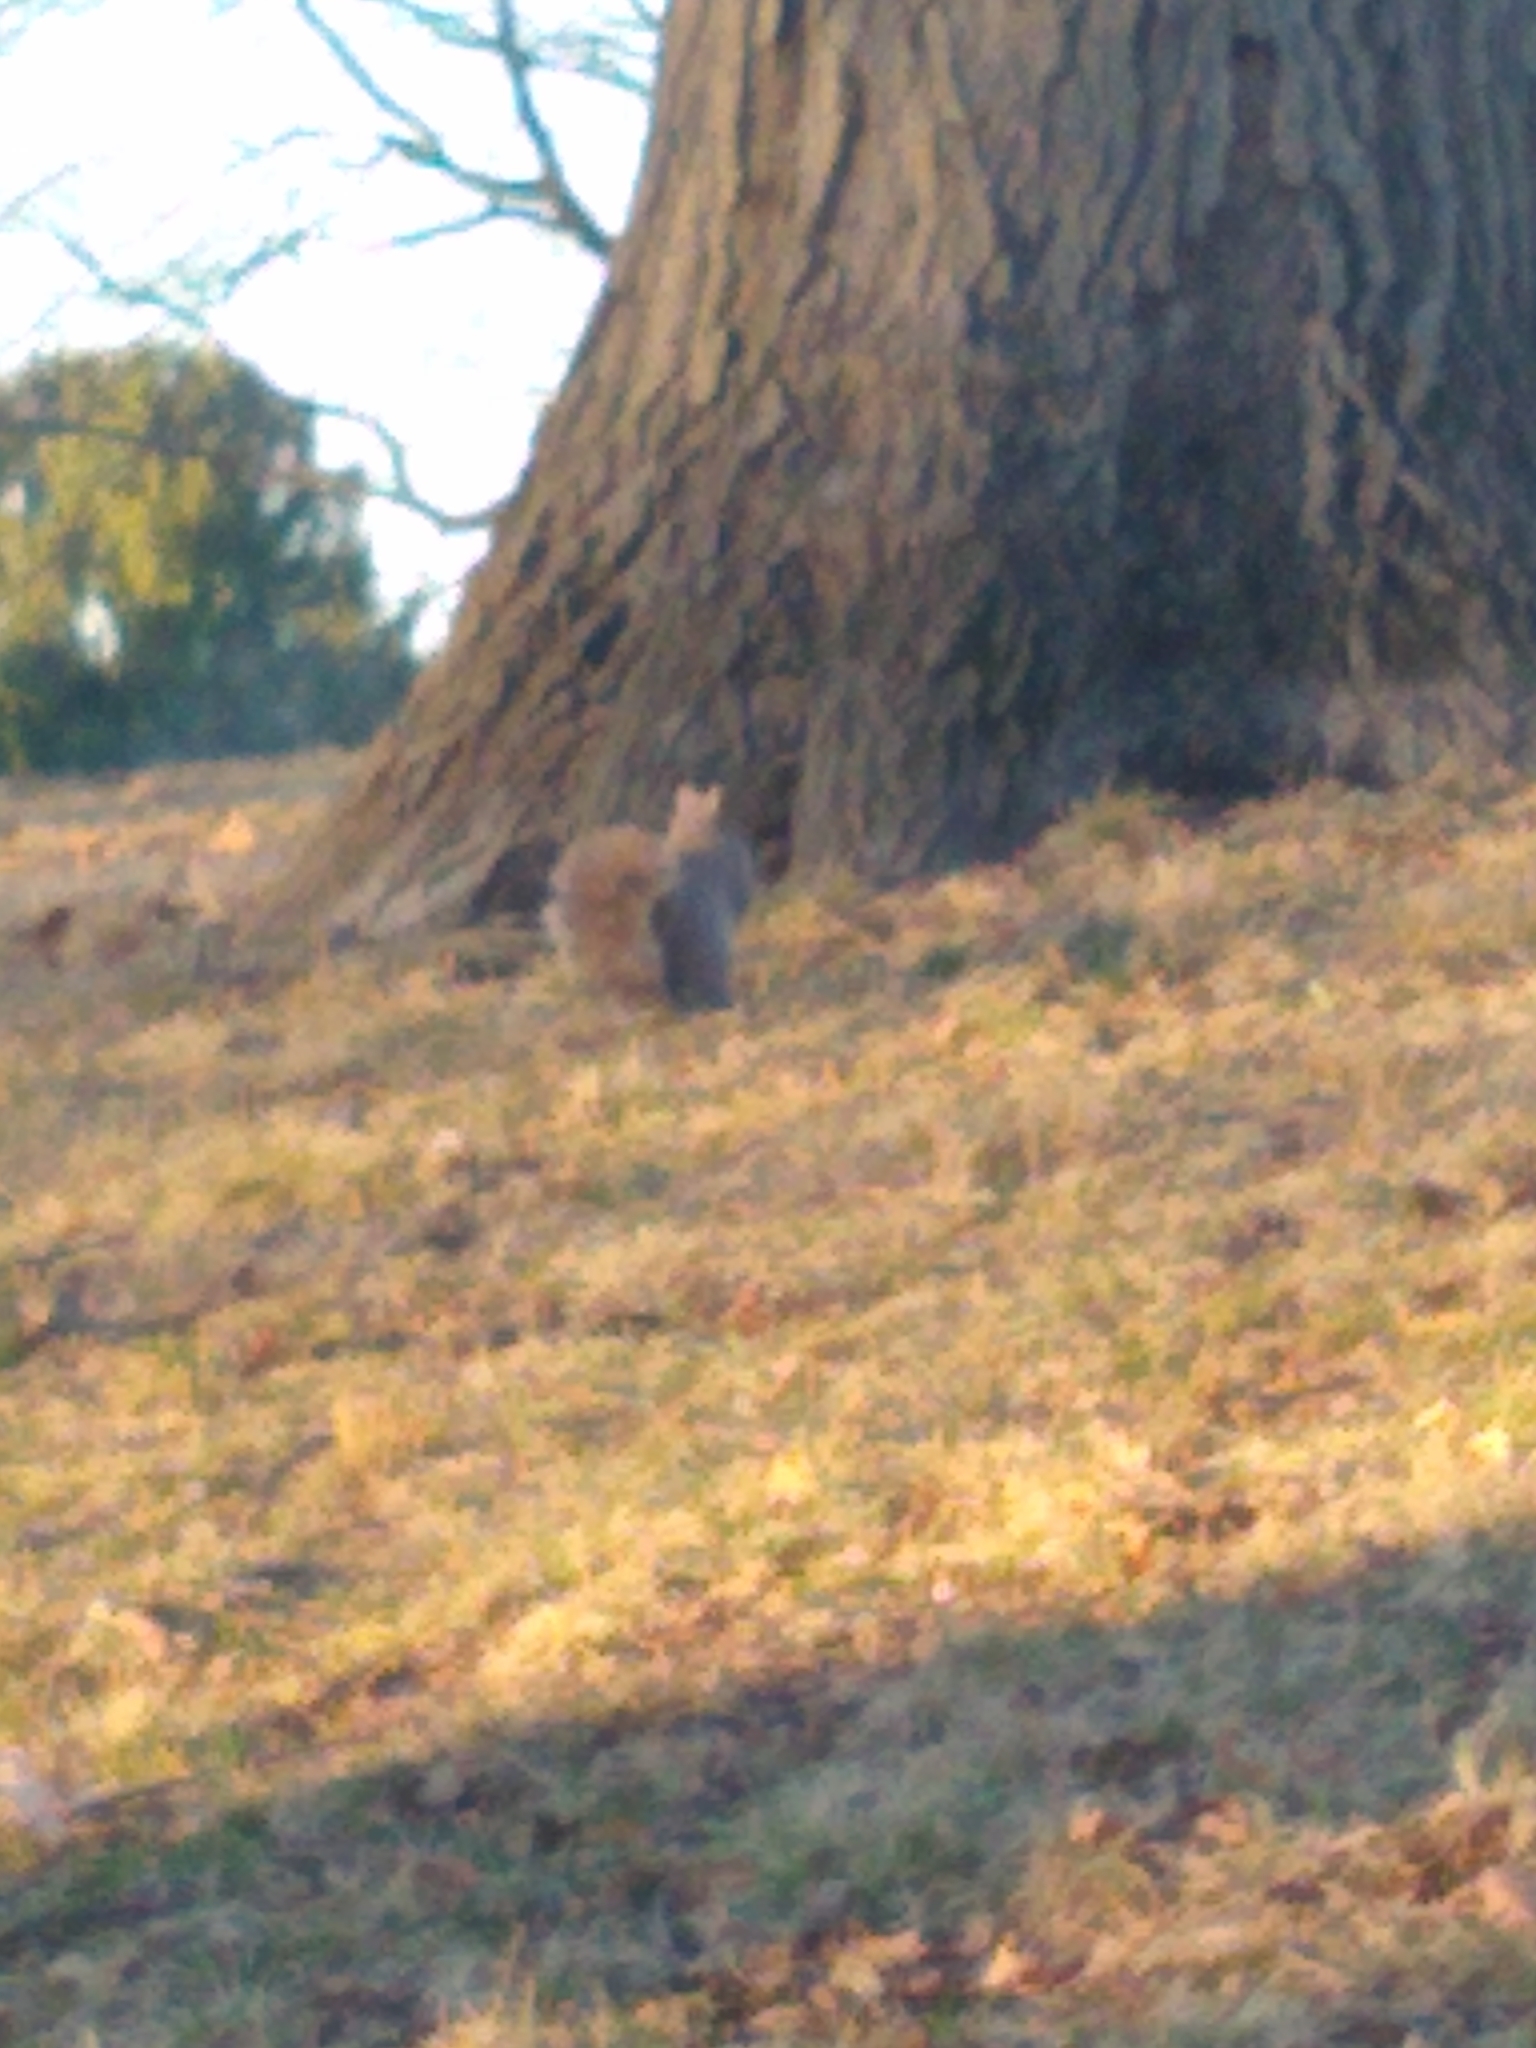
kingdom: Animalia
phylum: Chordata
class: Mammalia
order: Rodentia
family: Sciuridae
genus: Sciurus
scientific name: Sciurus carolinensis
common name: Eastern gray squirrel
